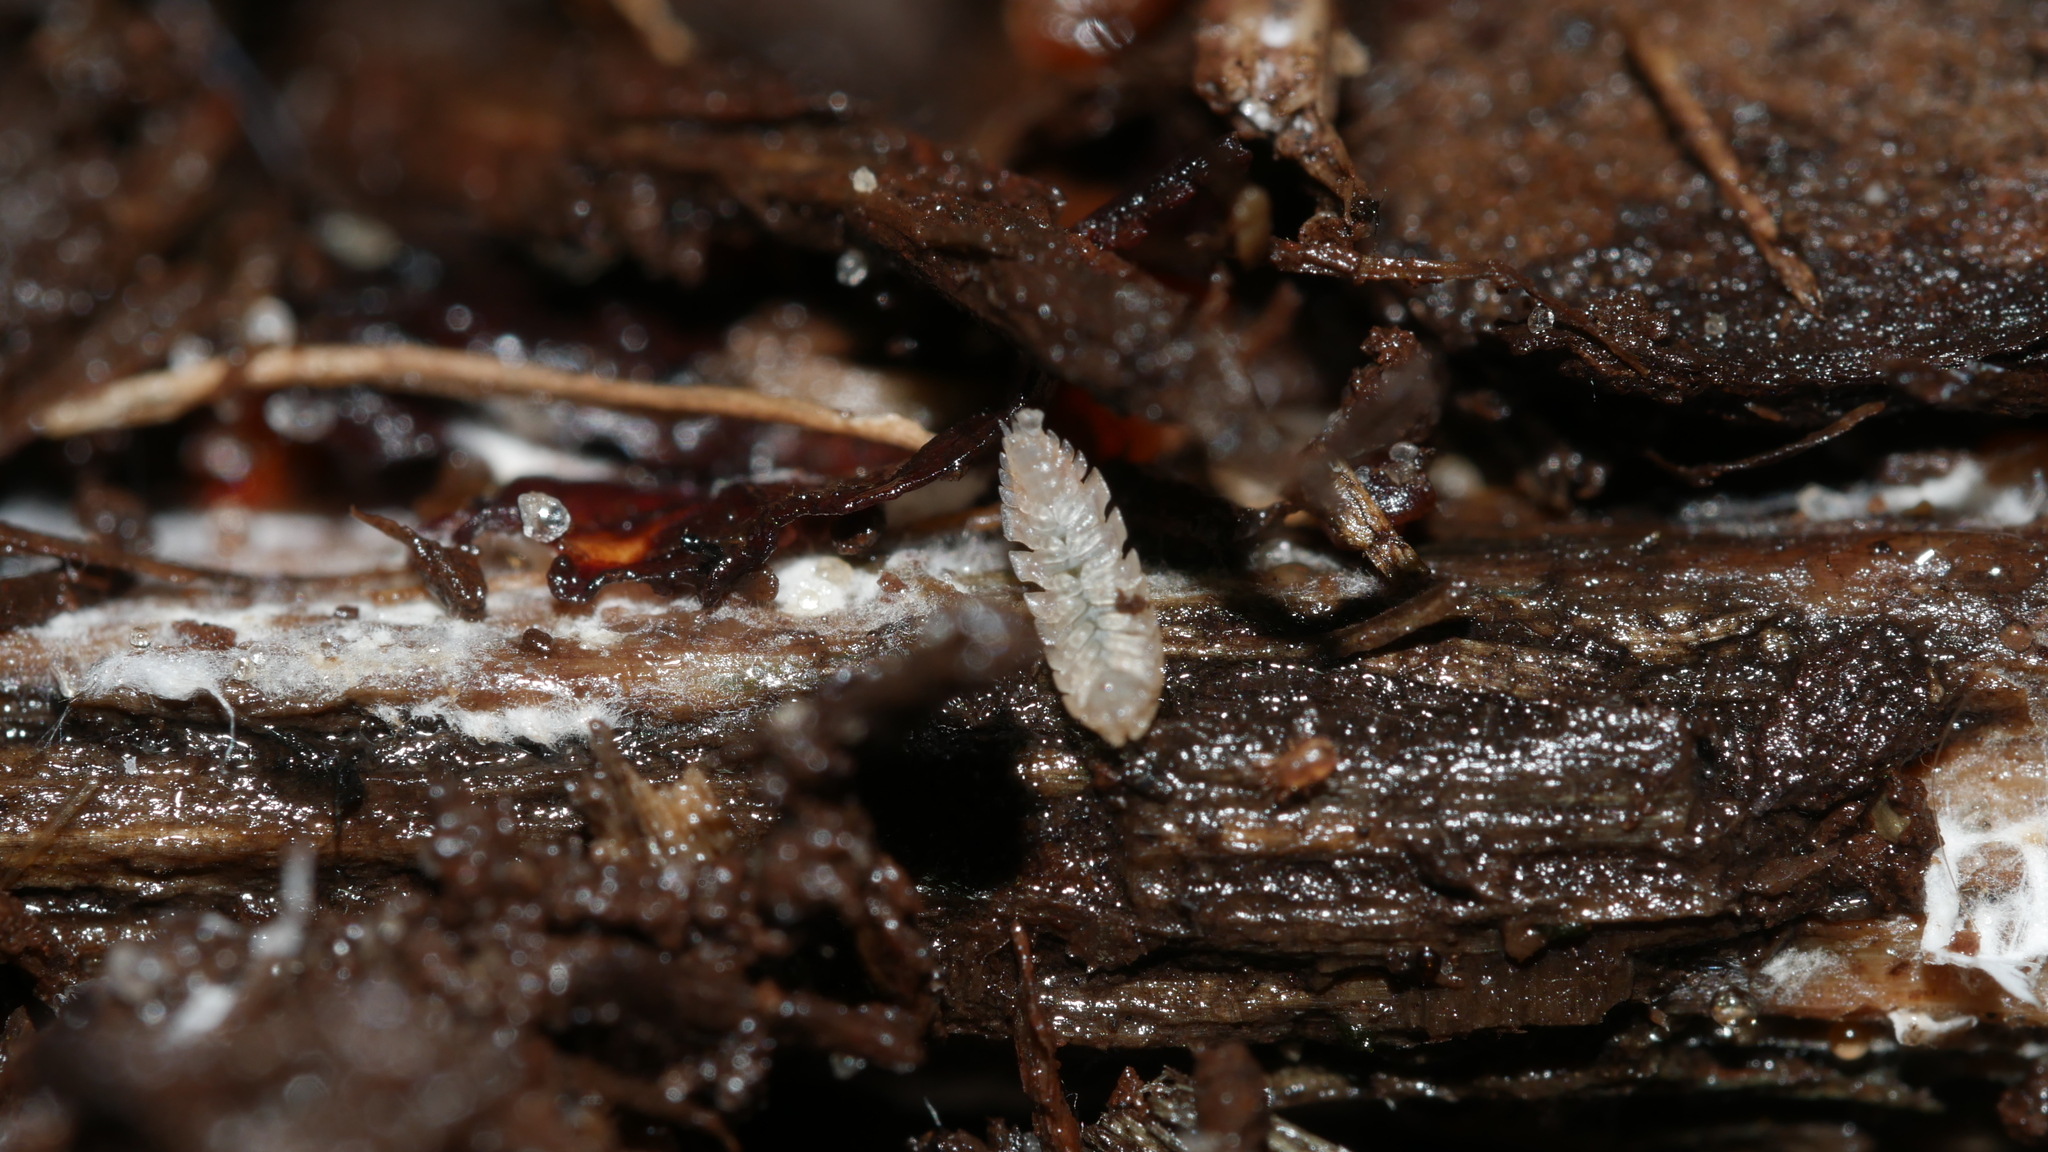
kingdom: Animalia
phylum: Arthropoda
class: Malacostraca
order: Isopoda
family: Trichoniscidae
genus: Haplophthalmus
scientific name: Haplophthalmus danicus
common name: Pillbug
